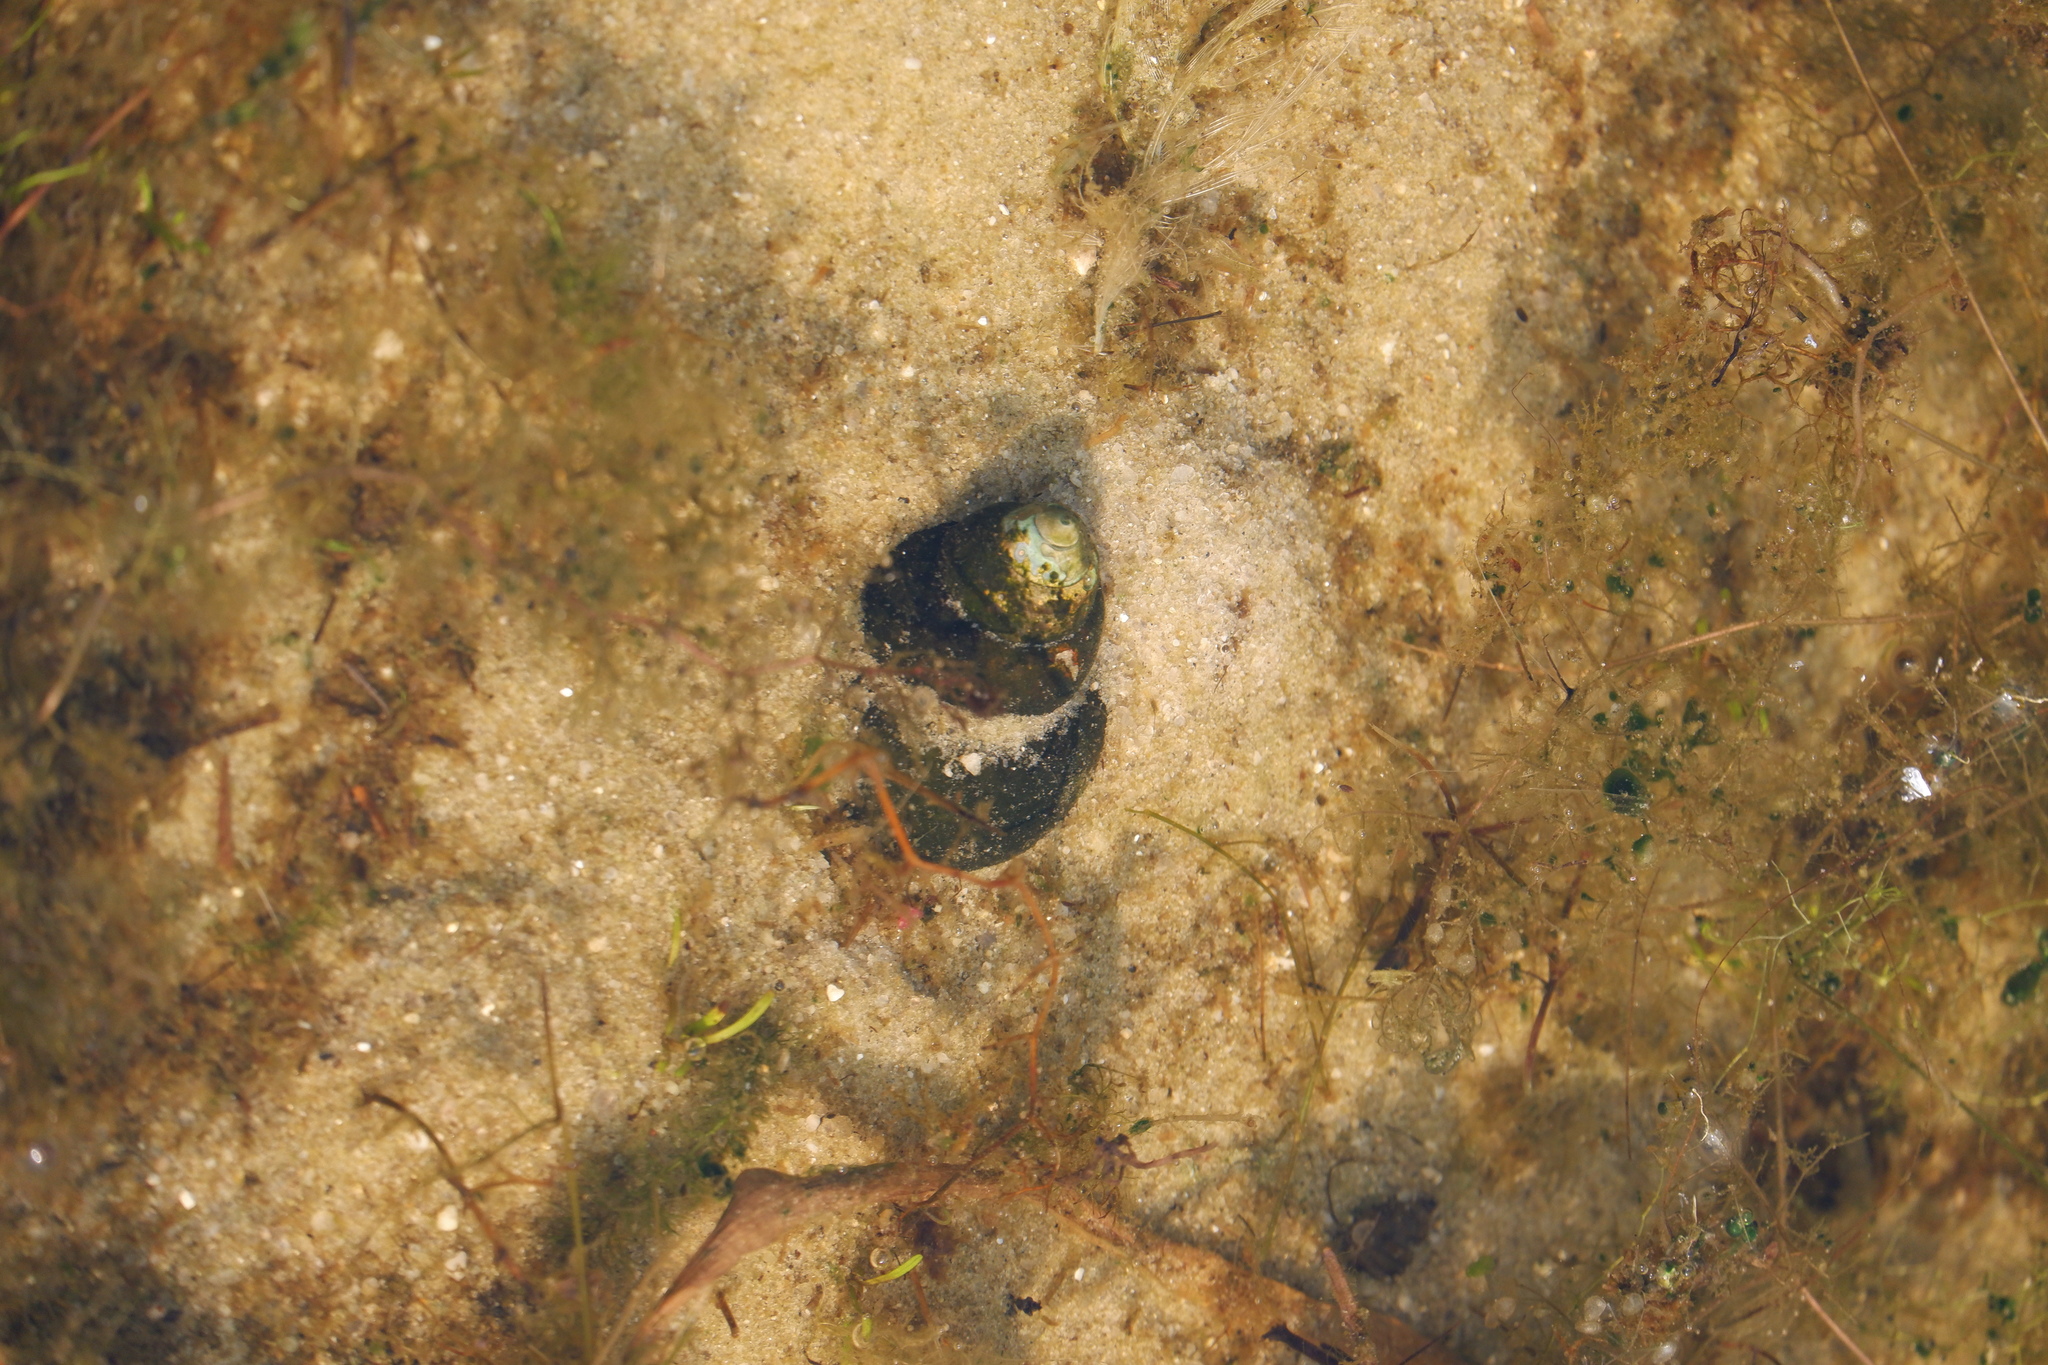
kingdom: Animalia
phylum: Mollusca
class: Gastropoda
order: Architaenioglossa
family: Viviparidae
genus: Cipangopaludina
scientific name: Cipangopaludina chinensis
